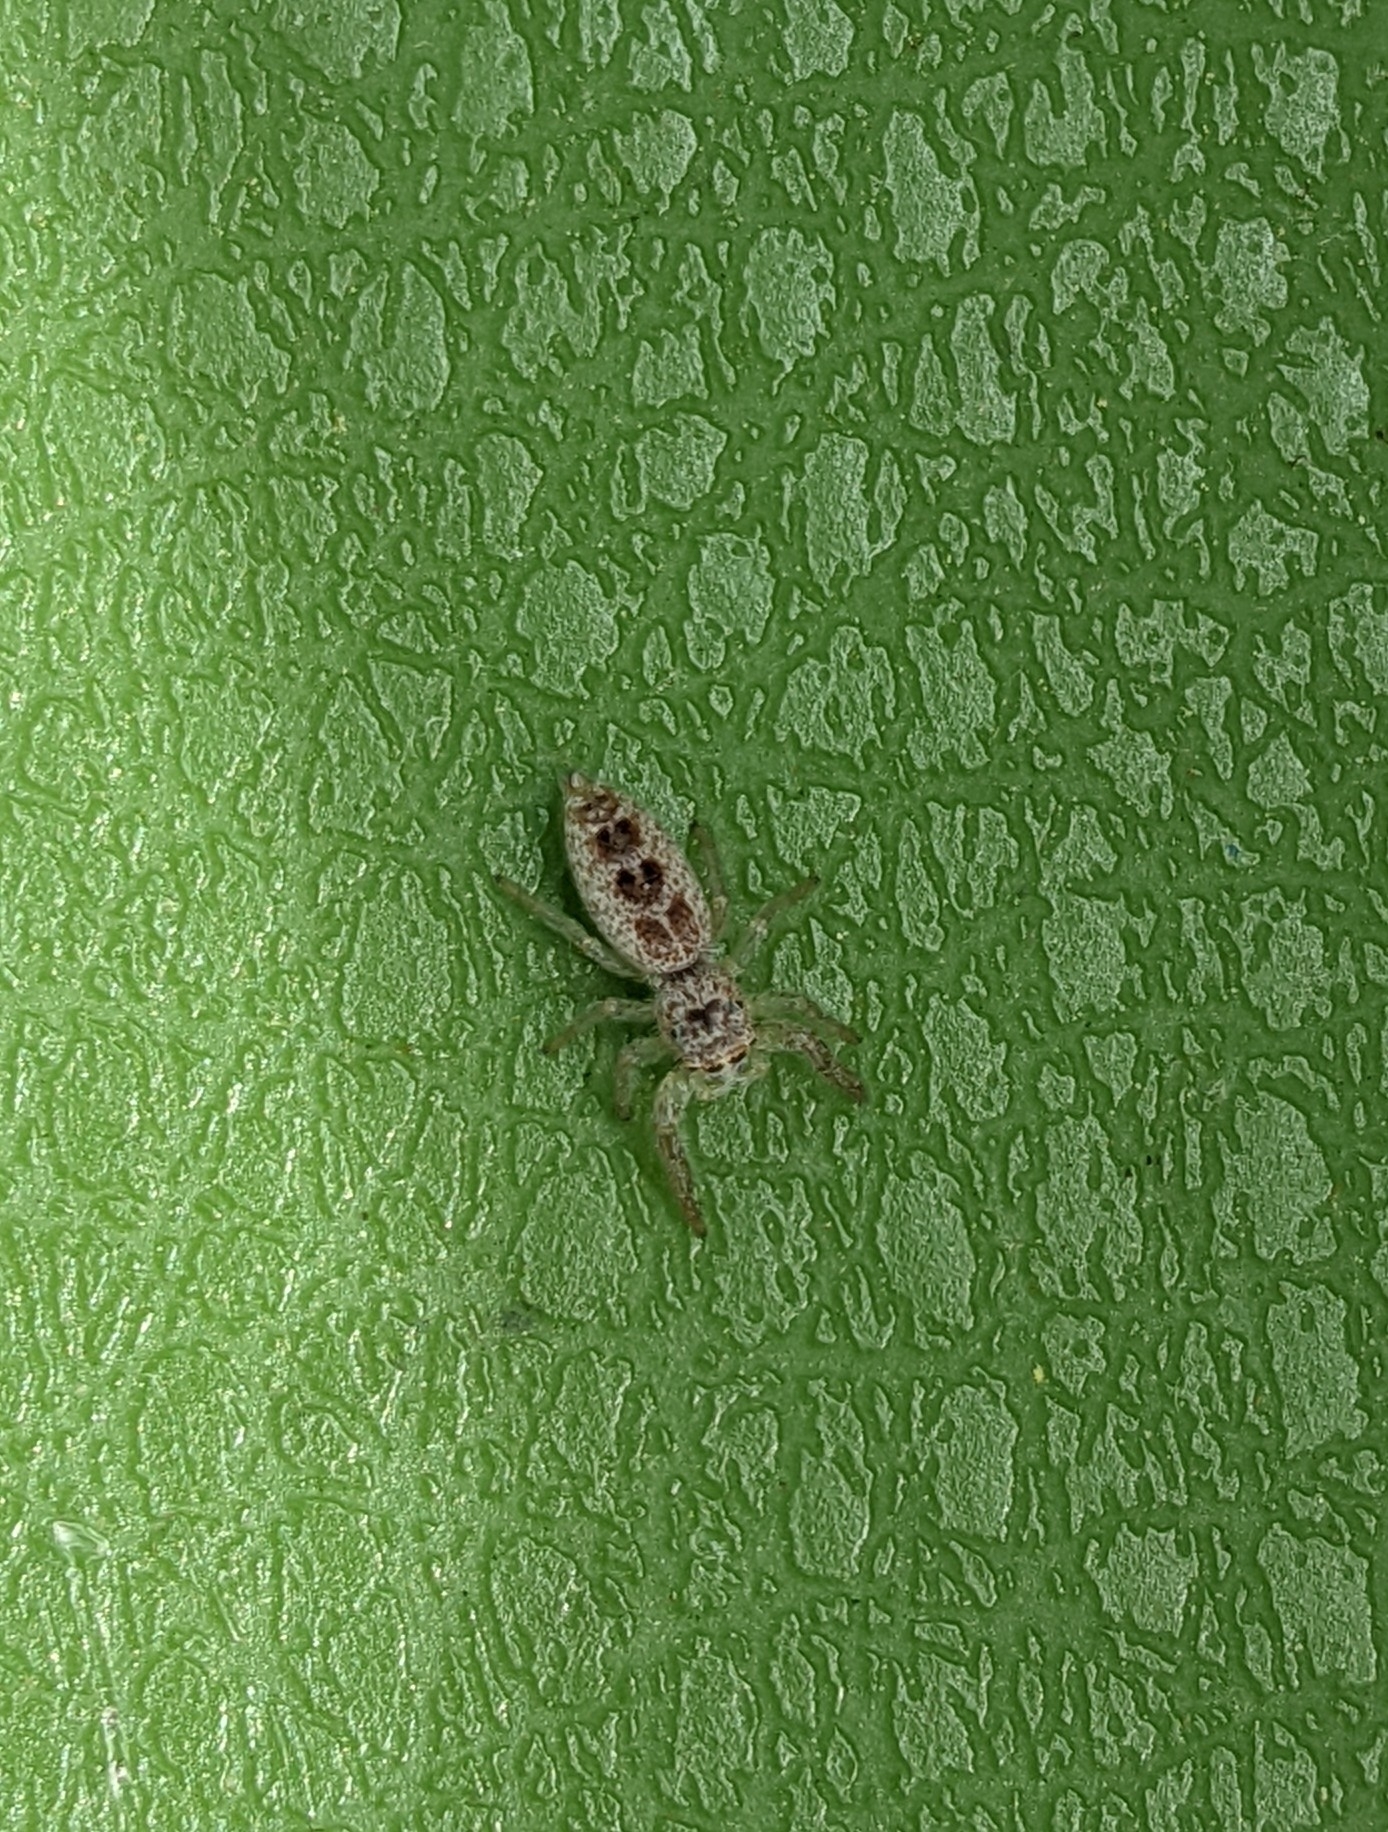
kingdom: Animalia
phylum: Arthropoda
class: Arachnida
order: Araneae
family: Salticidae
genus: Hentzia
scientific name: Hentzia mitrata
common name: White-jawed jumping spider
